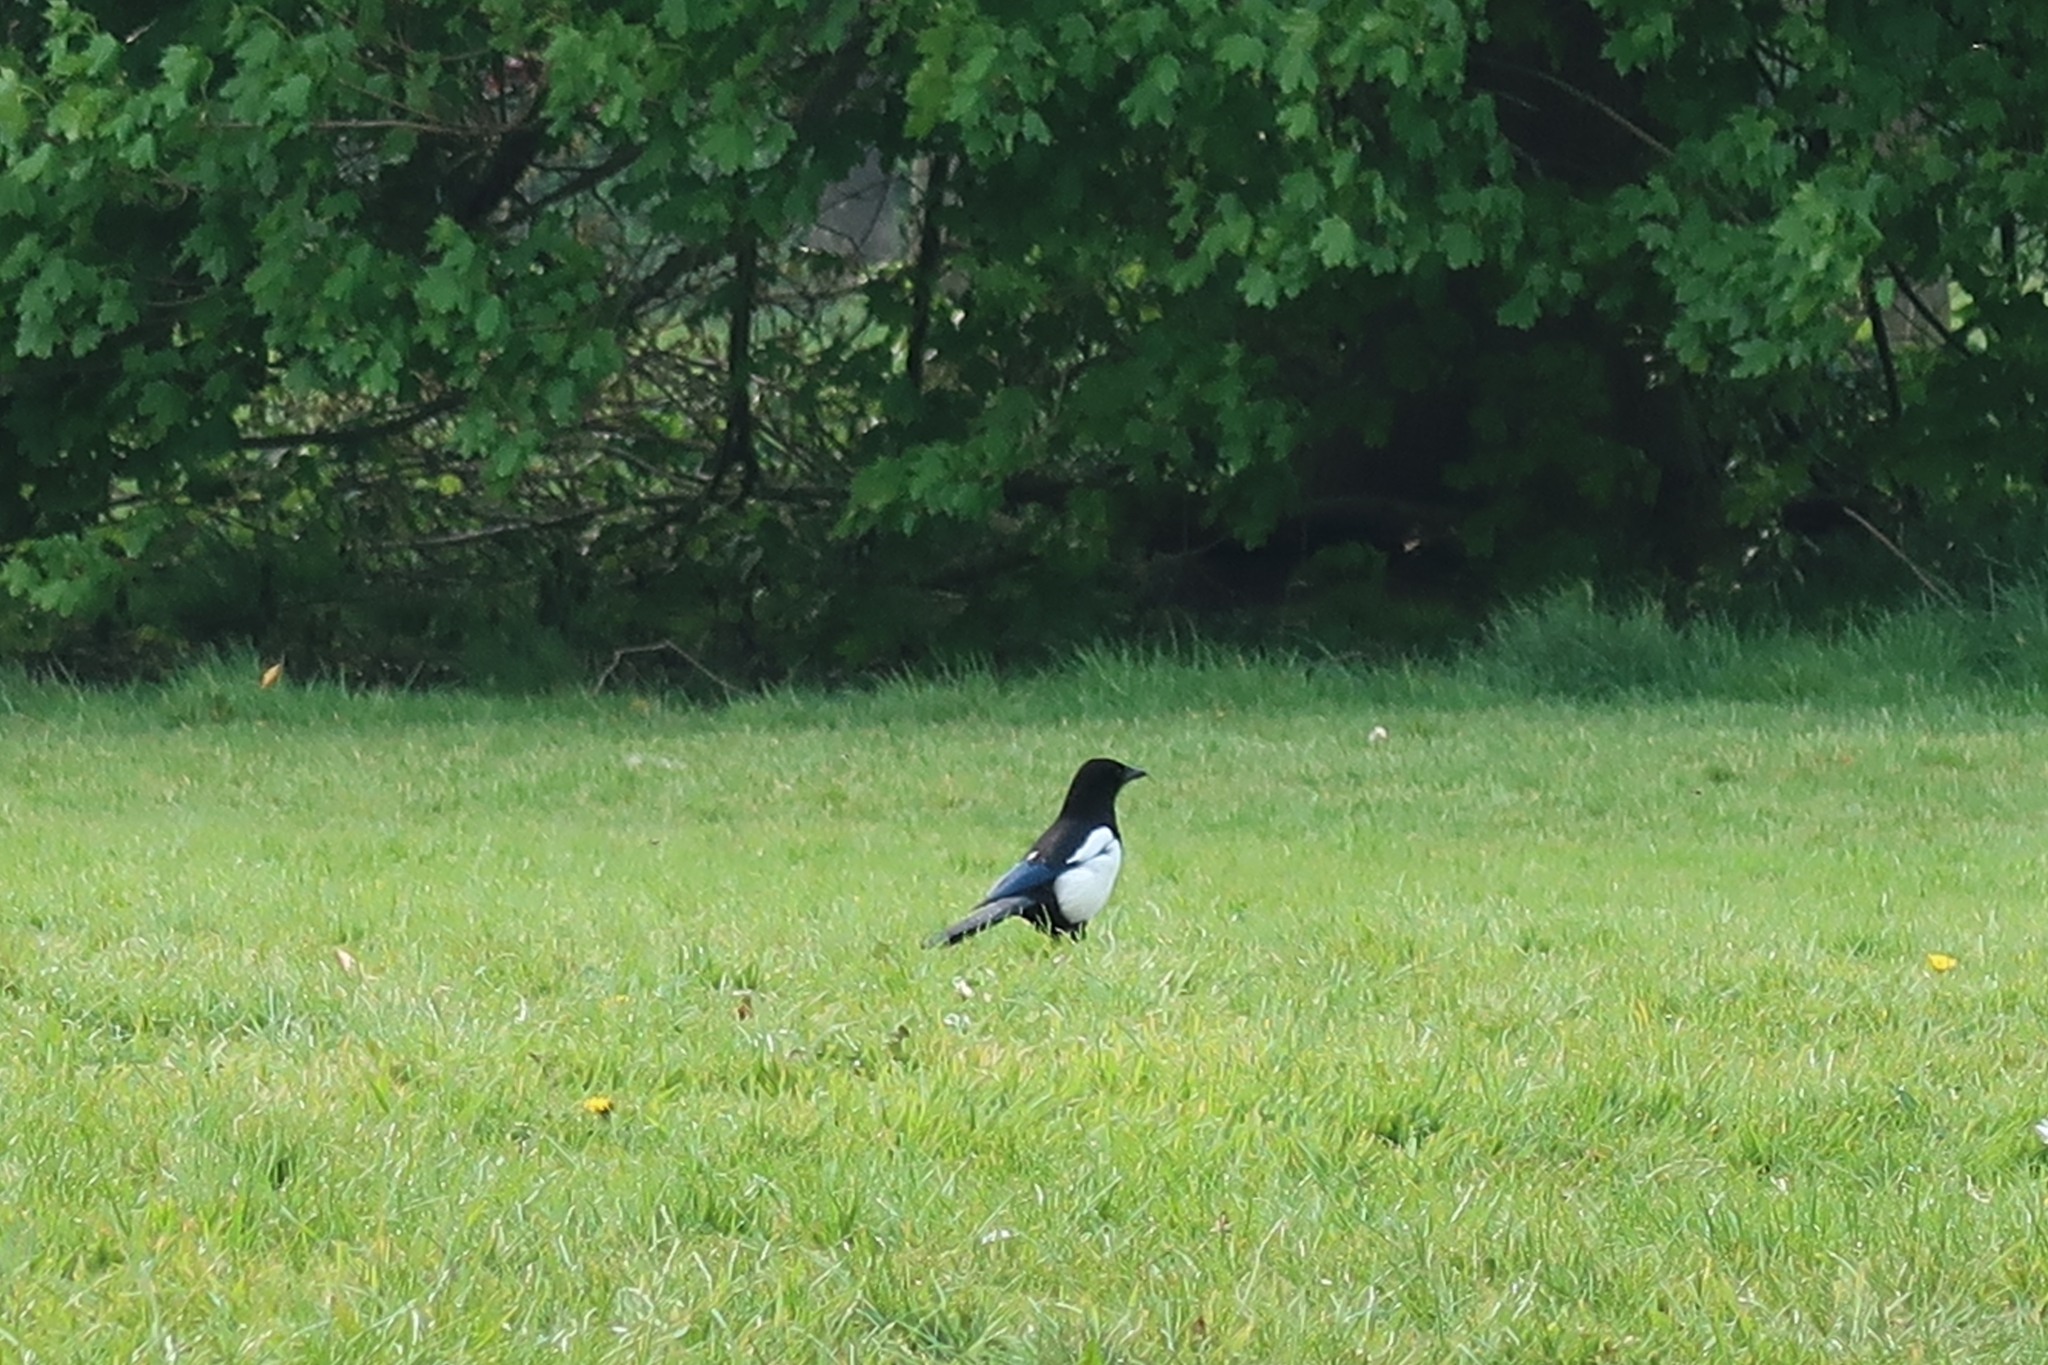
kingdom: Animalia
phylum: Chordata
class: Aves
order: Passeriformes
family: Corvidae
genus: Pica
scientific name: Pica pica
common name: Eurasian magpie
